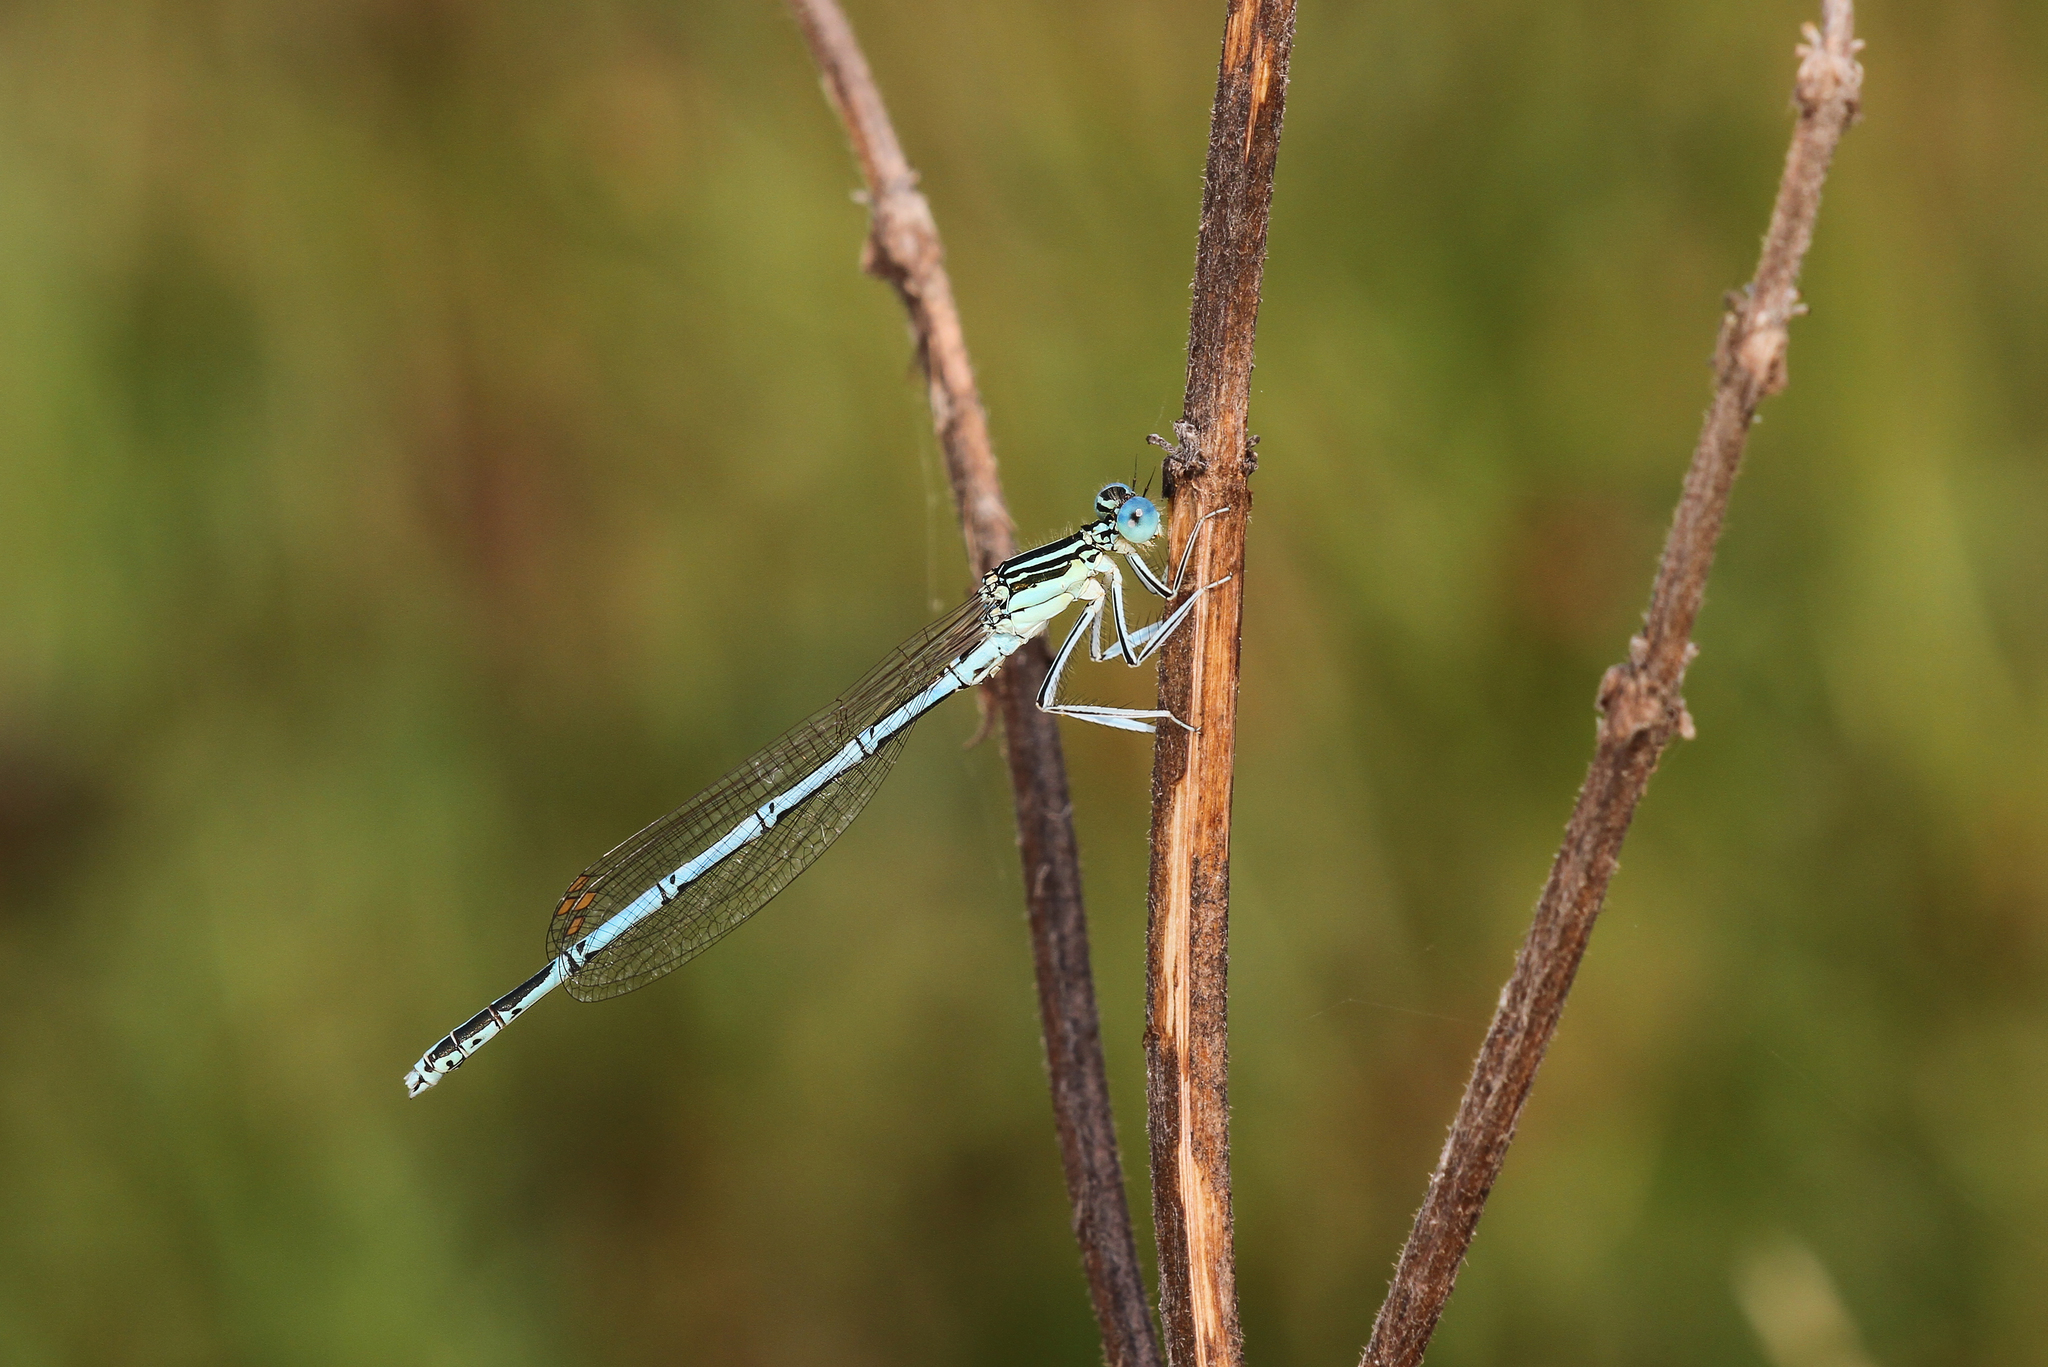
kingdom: Animalia
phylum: Arthropoda
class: Insecta
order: Odonata
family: Platycnemididae
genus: Platycnemis
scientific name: Platycnemis pennipes
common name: White-legged damselfly
